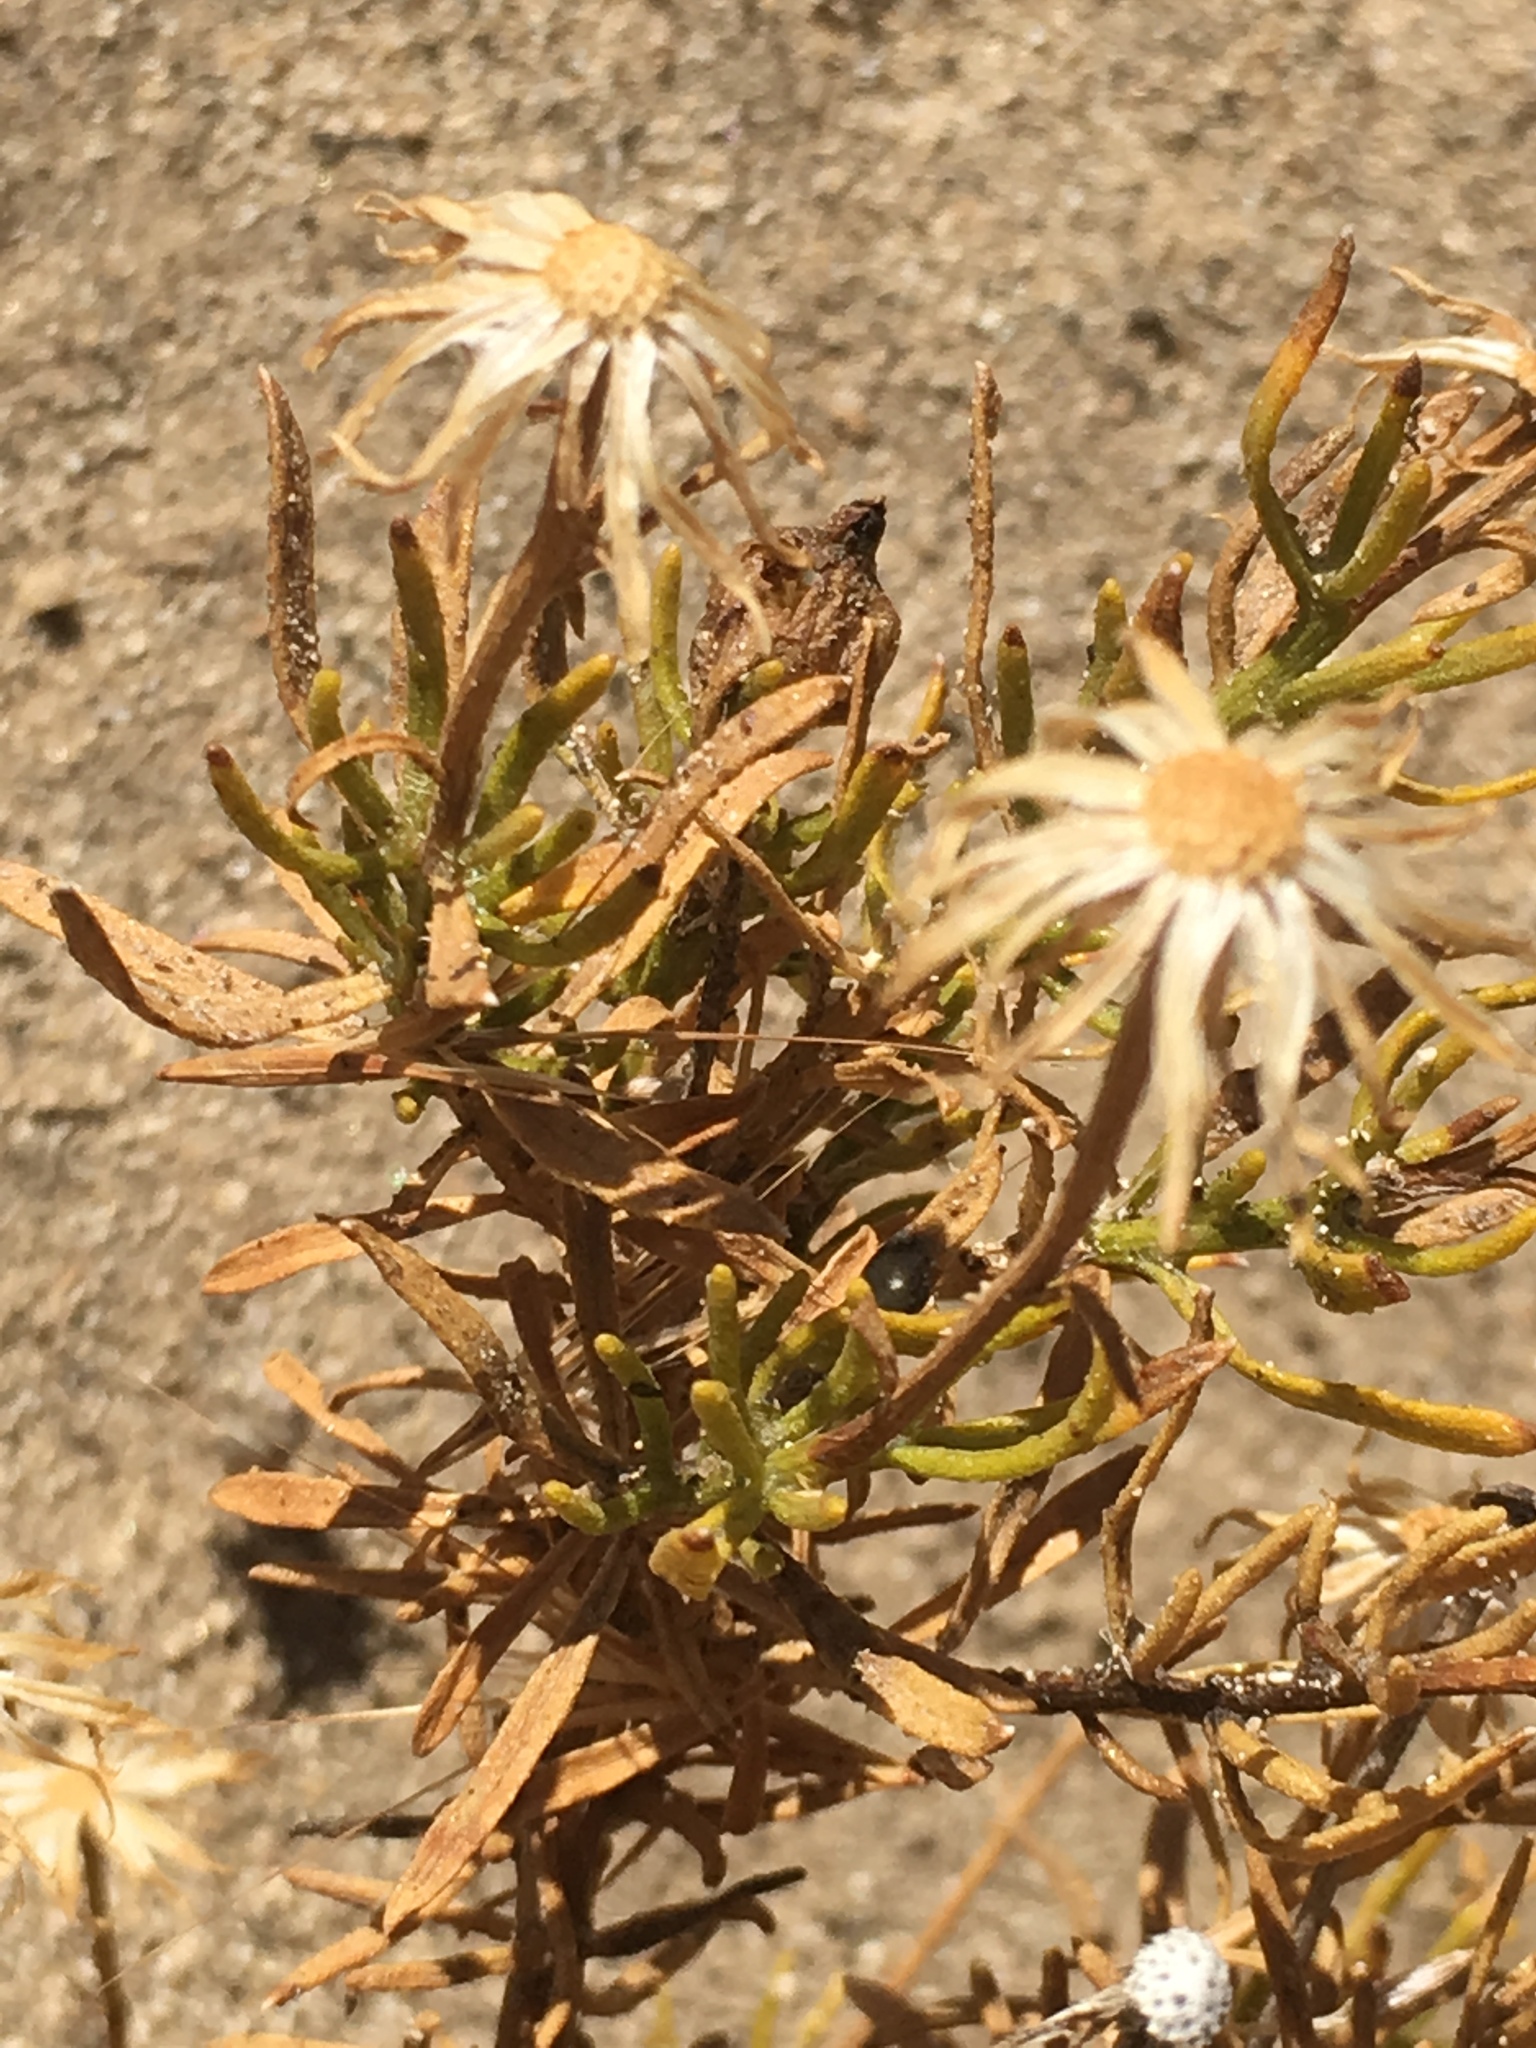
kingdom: Plantae
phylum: Tracheophyta
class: Magnoliopsida
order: Asterales
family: Asteraceae
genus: Ericameria
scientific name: Ericameria linearifolia
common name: Interior goldenbush
